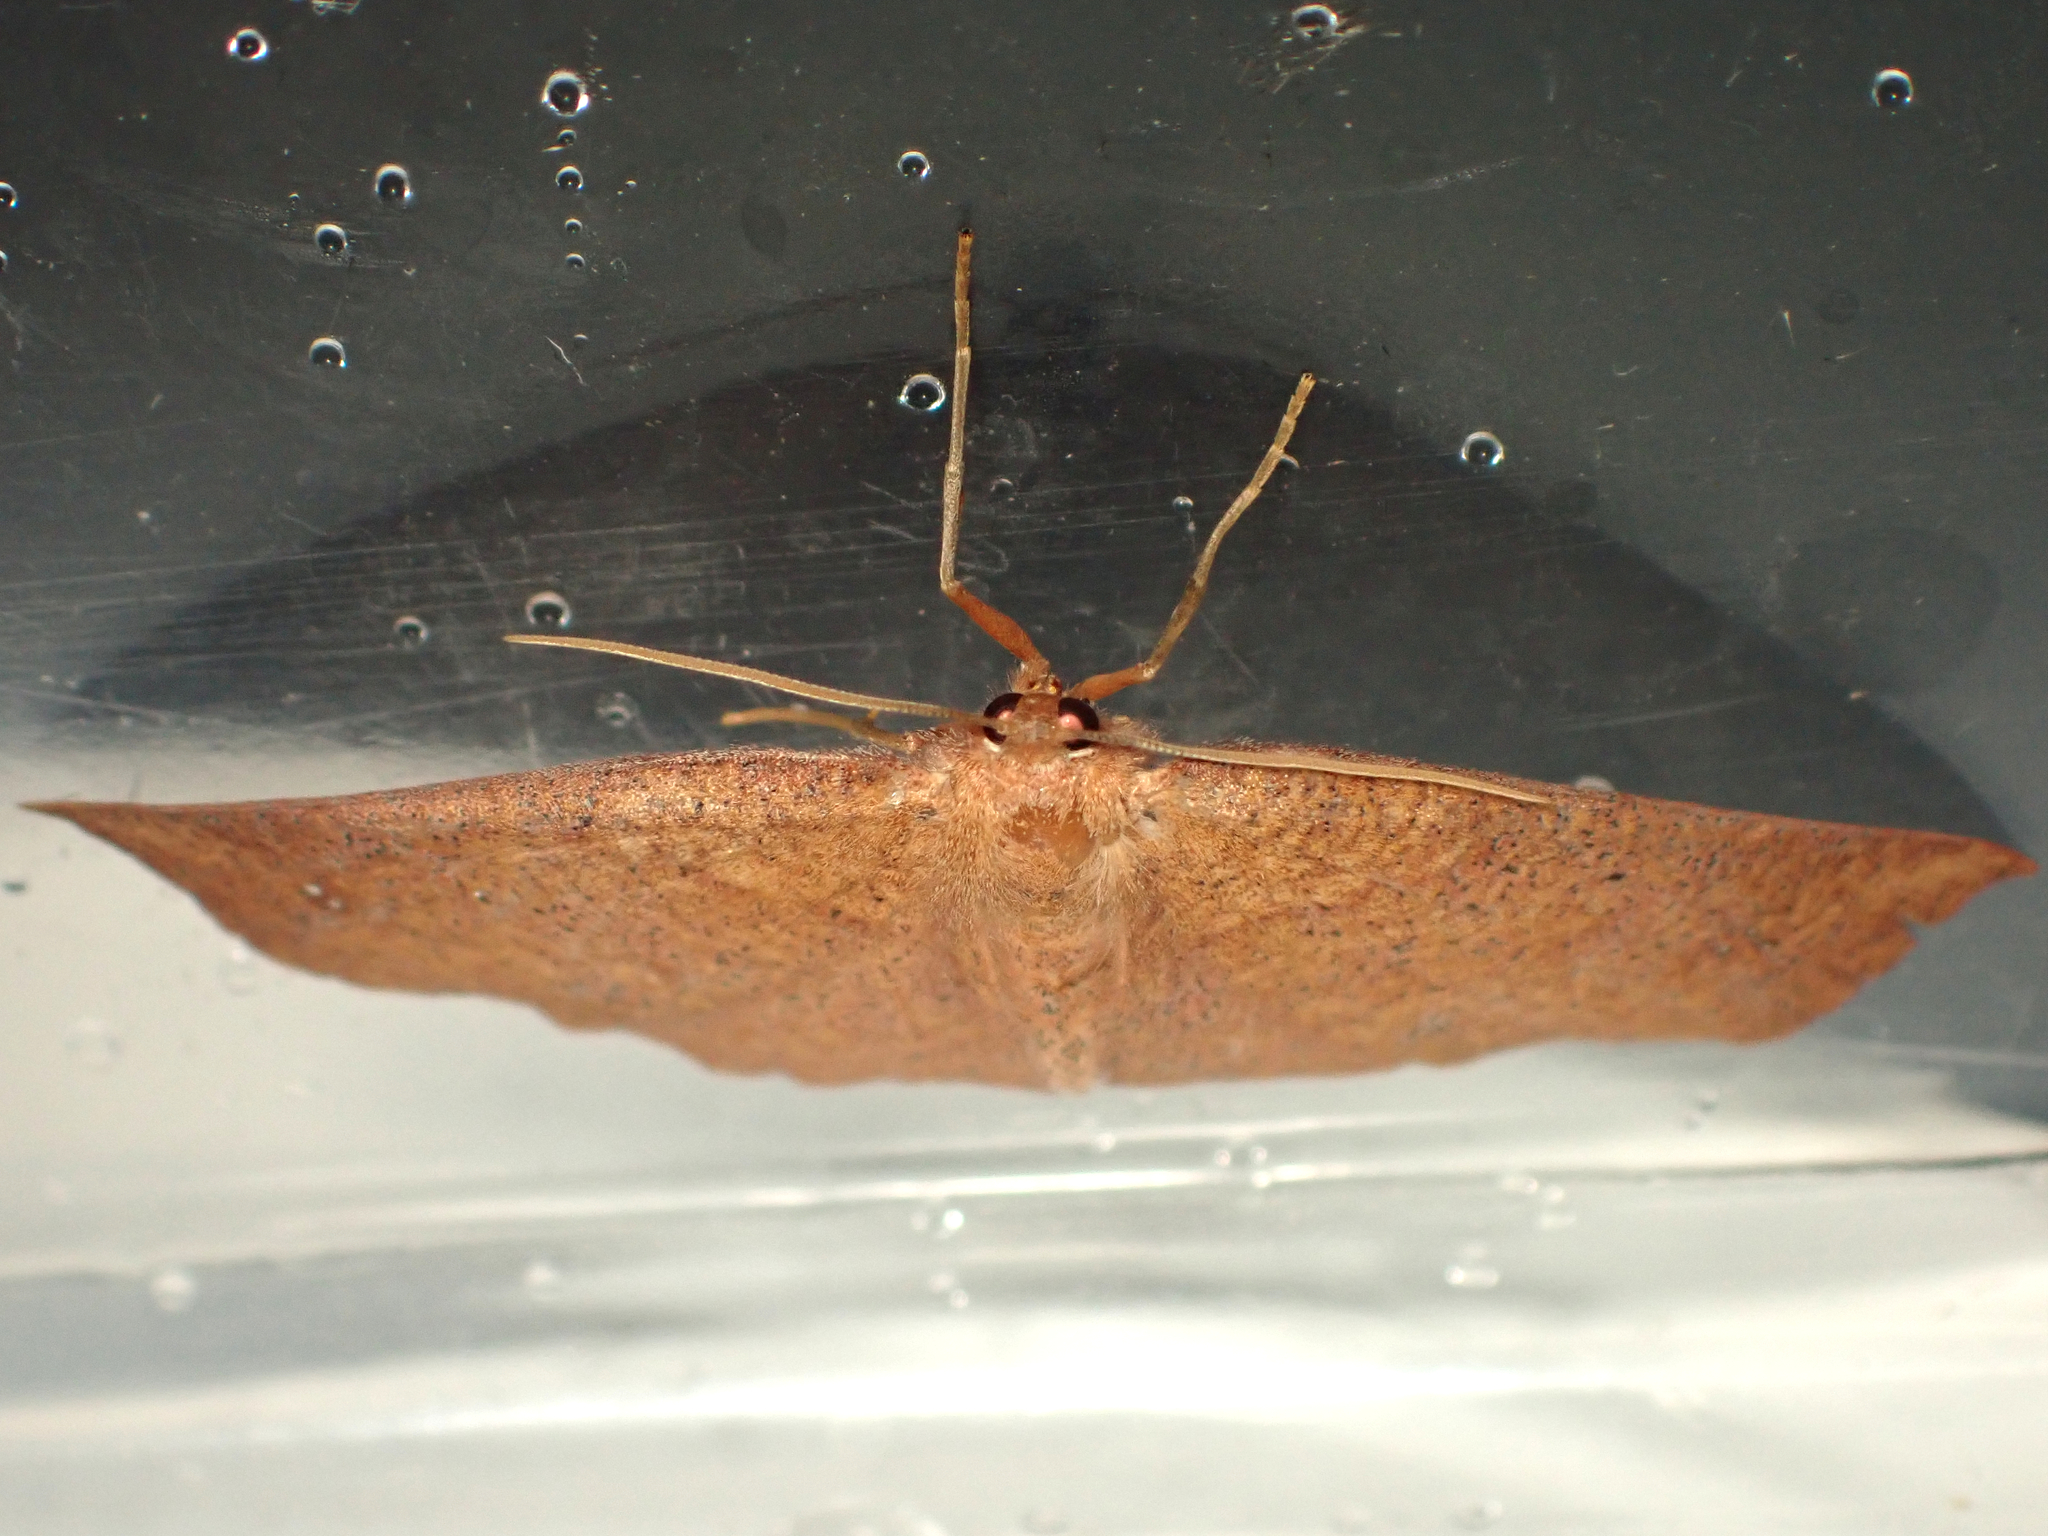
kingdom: Animalia
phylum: Arthropoda
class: Insecta
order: Lepidoptera
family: Geometridae
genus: Xyridacma
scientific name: Xyridacma ustaria
